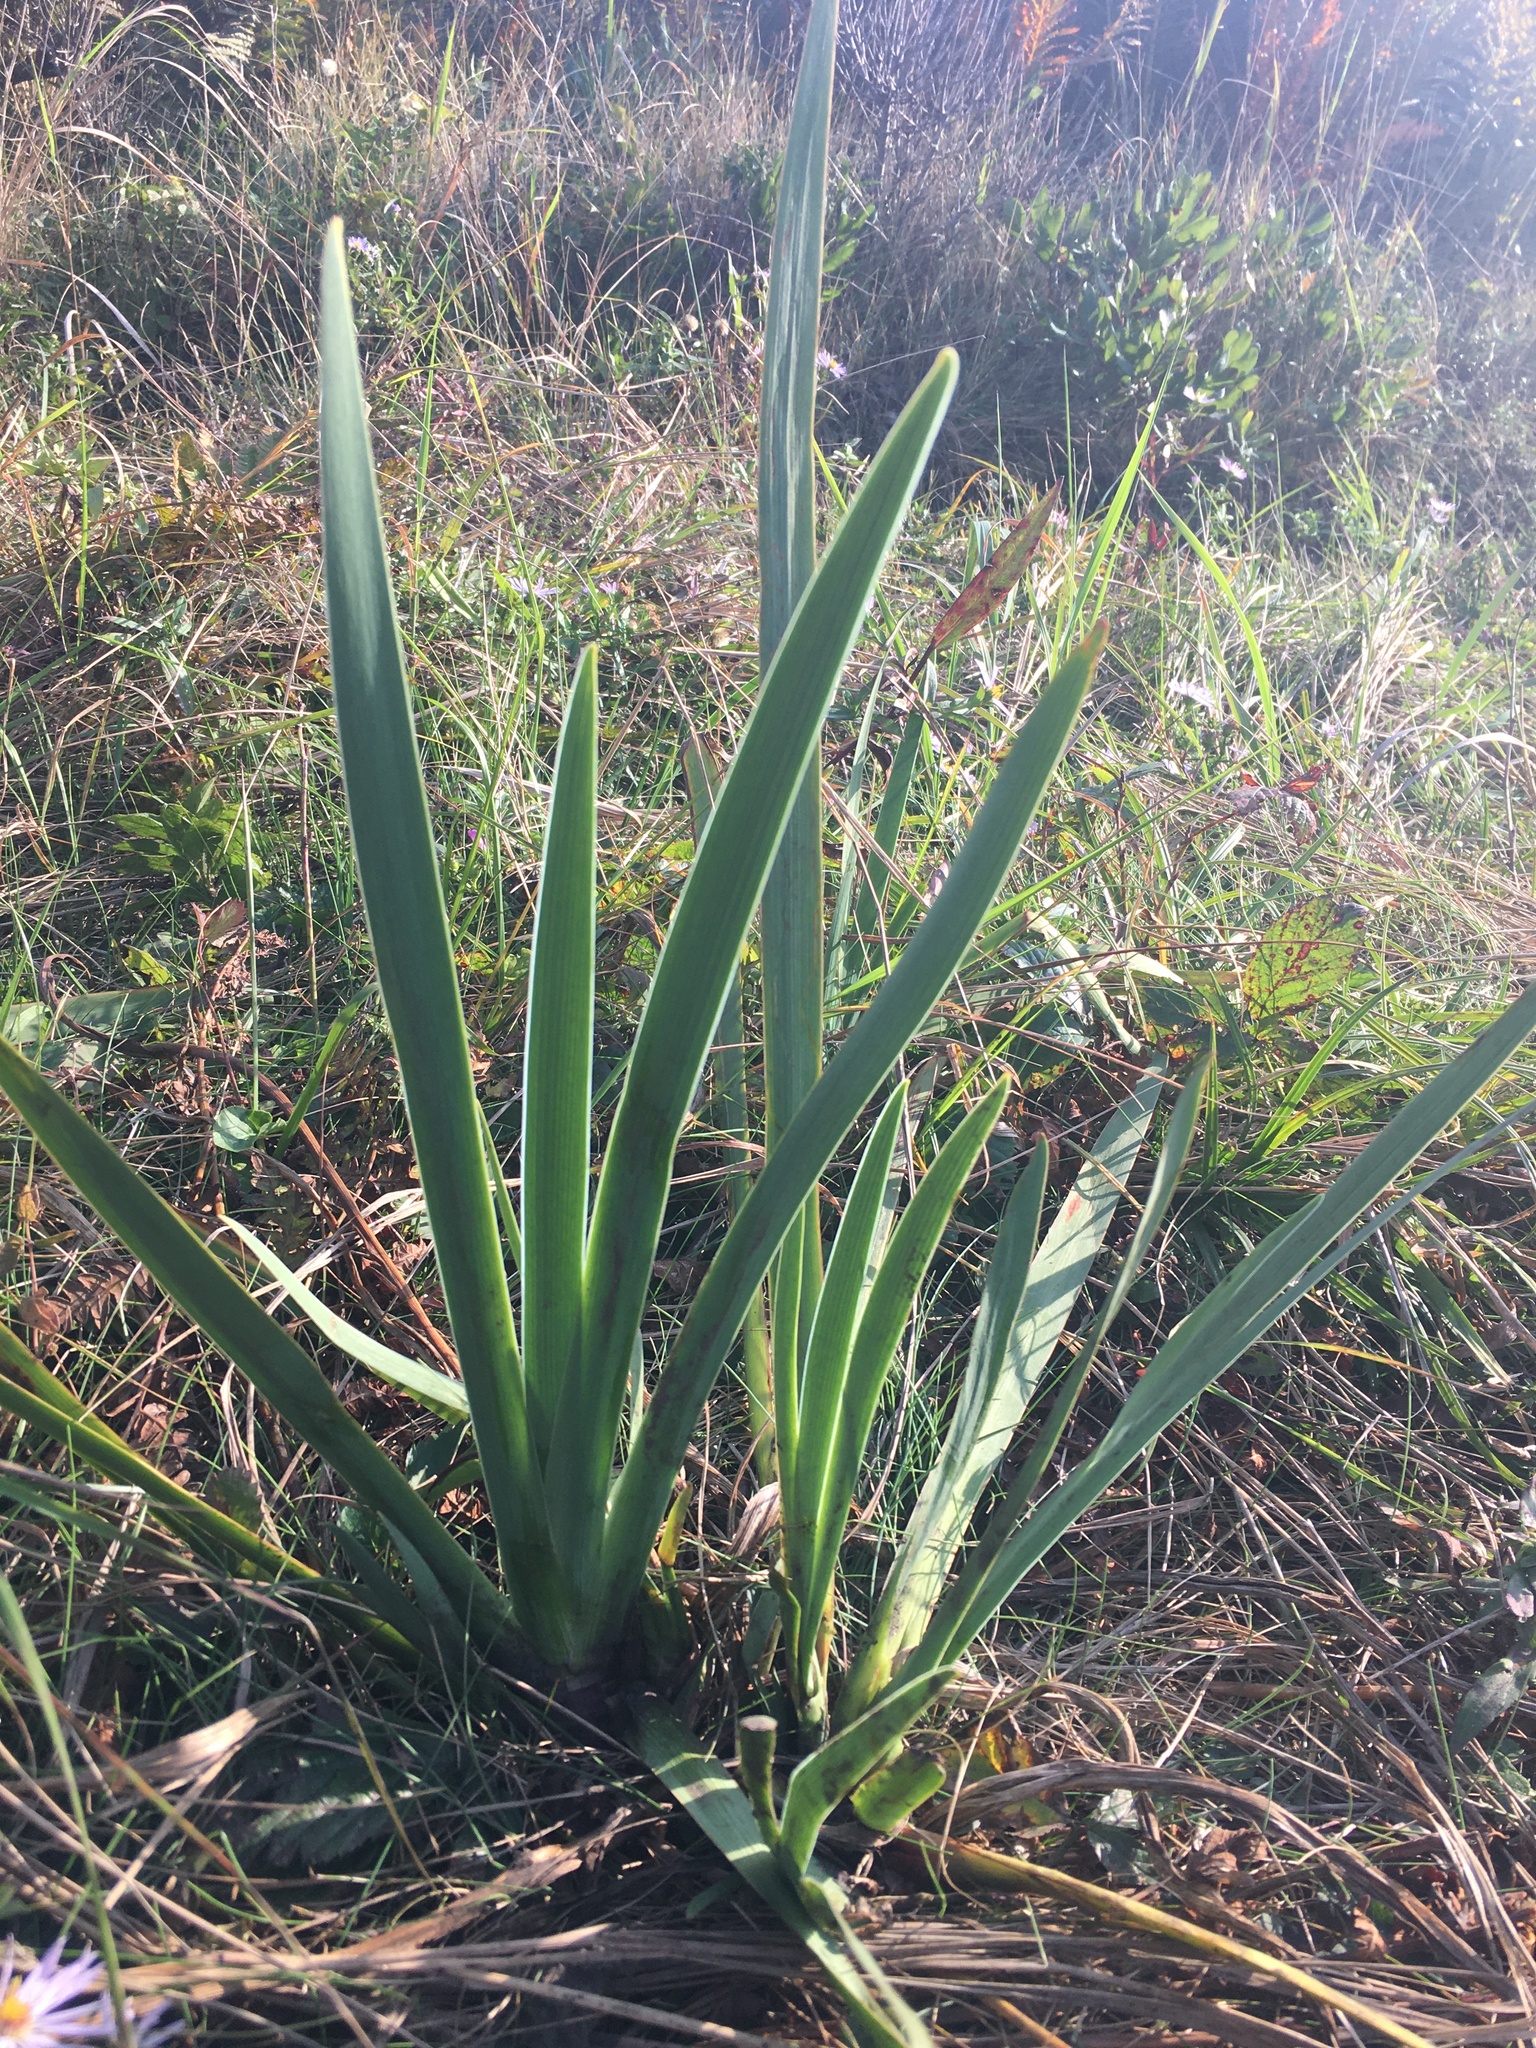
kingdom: Plantae
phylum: Tracheophyta
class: Liliopsida
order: Asparagales
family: Iridaceae
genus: Iris
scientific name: Iris versicolor
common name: Purple iris
